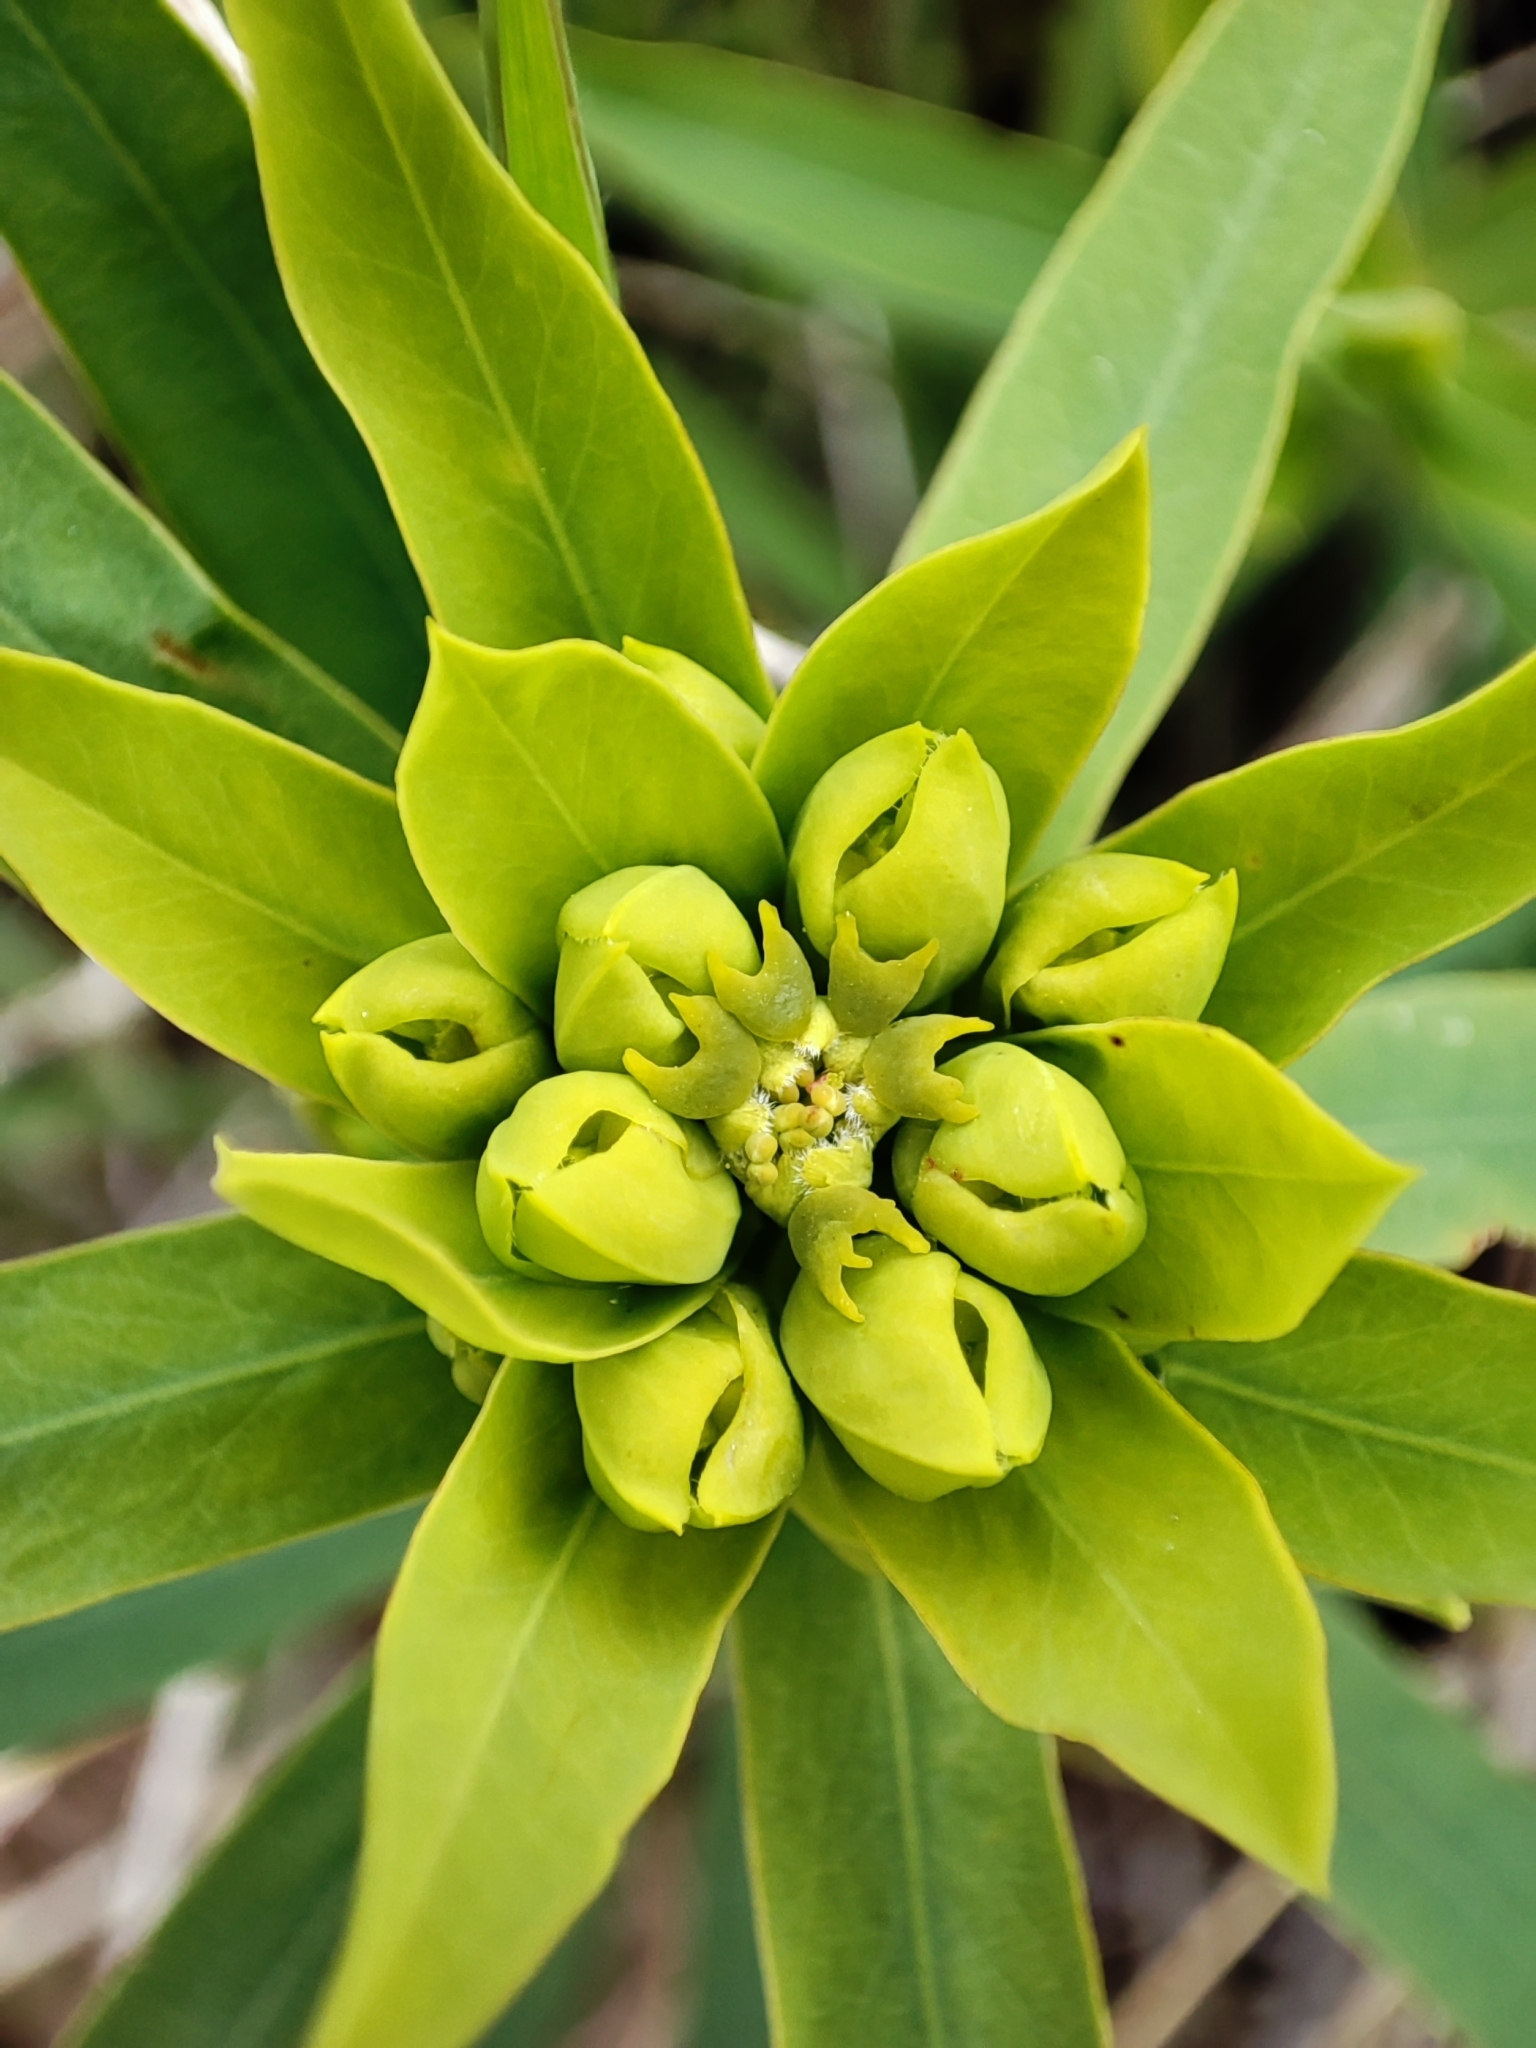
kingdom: Plantae
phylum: Tracheophyta
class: Magnoliopsida
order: Malpighiales
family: Euphorbiaceae
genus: Euphorbia
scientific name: Euphorbia virgata
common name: Leafy spurge
